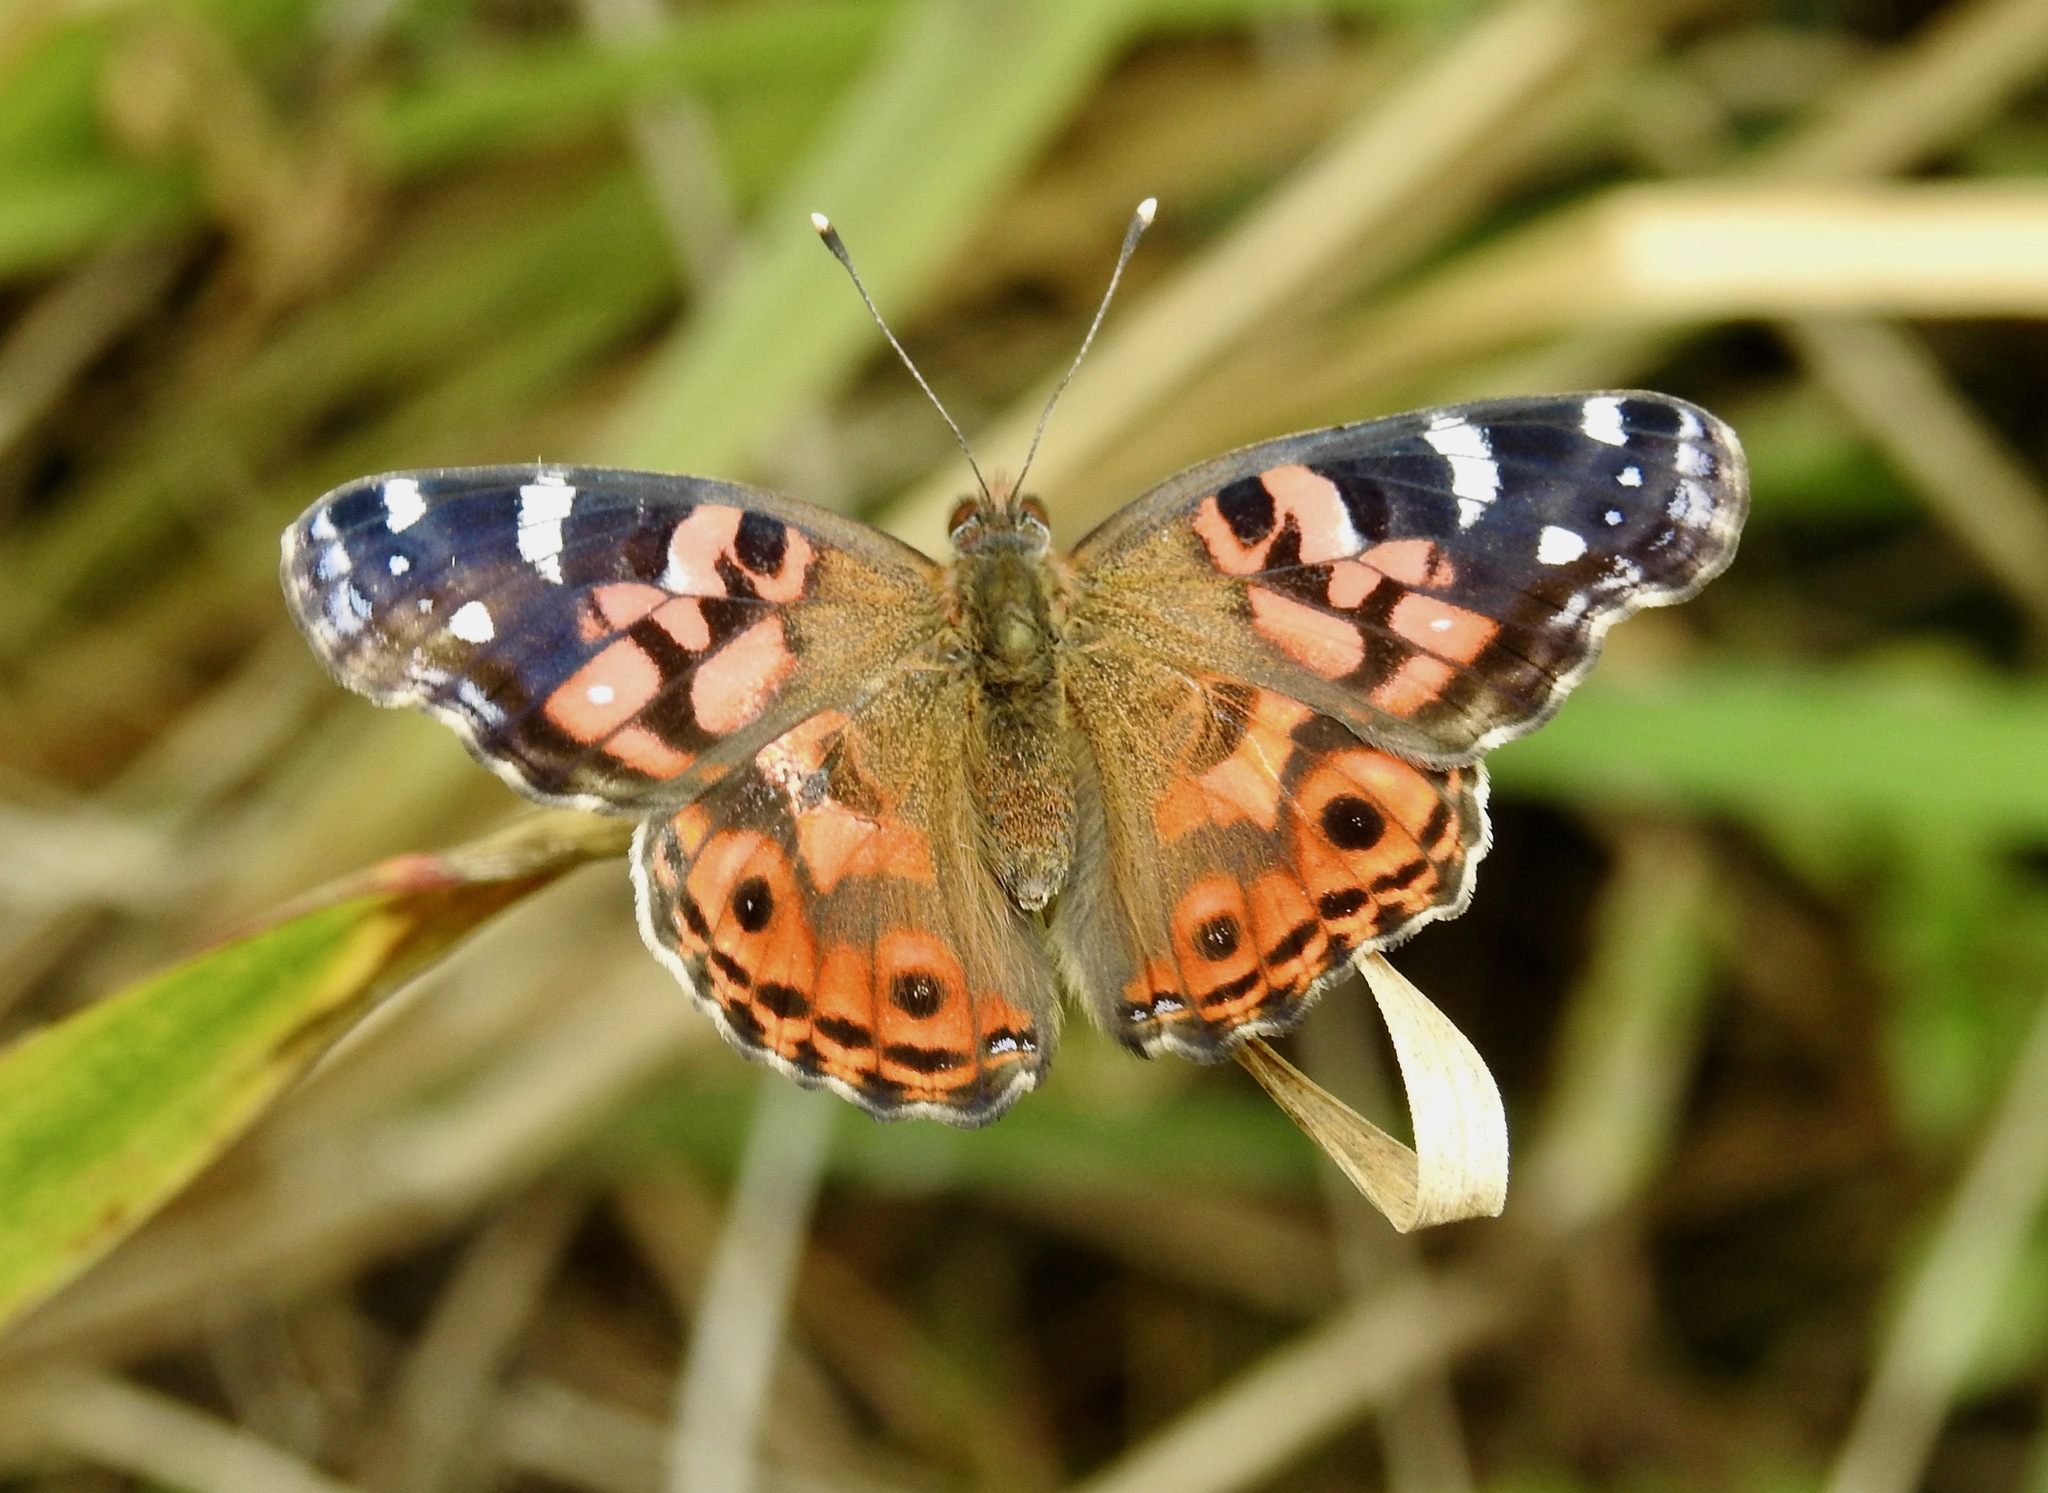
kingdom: Animalia
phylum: Arthropoda
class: Insecta
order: Lepidoptera
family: Nymphalidae
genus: Vanessa
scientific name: Vanessa braziliensis
